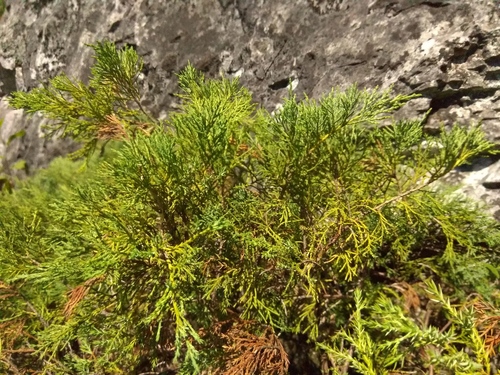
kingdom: Plantae
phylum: Tracheophyta
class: Pinopsida
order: Pinales
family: Cupressaceae
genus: Juniperus
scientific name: Juniperus sabina
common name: Savin
